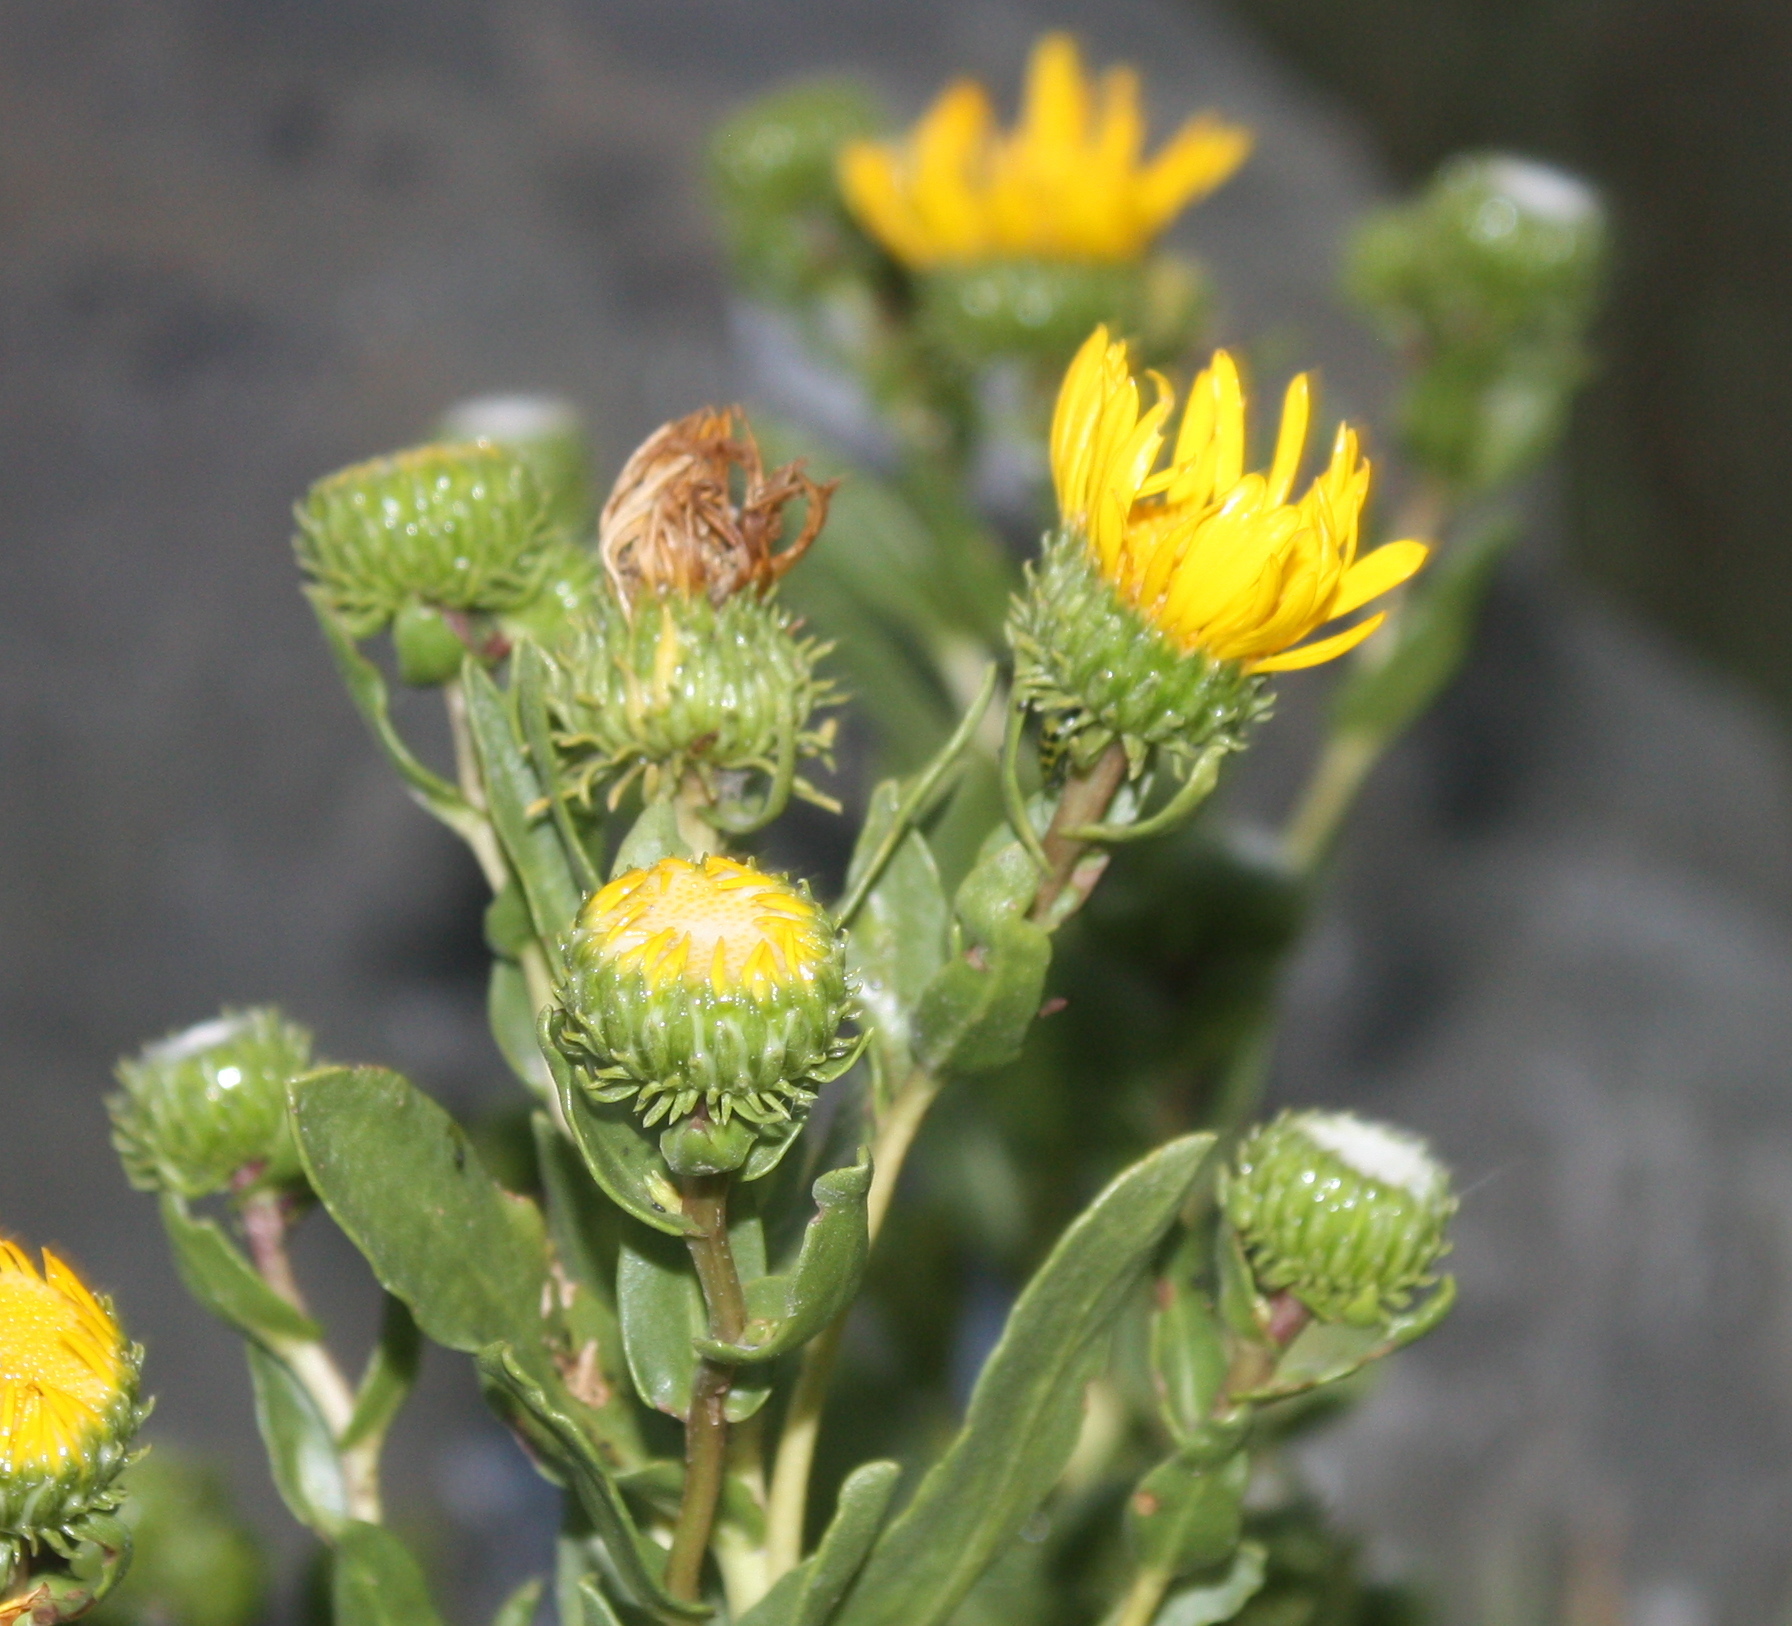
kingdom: Plantae
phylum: Tracheophyta
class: Magnoliopsida
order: Asterales
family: Asteraceae
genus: Grindelia
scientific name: Grindelia hirsutula
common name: Hairy gumweed
